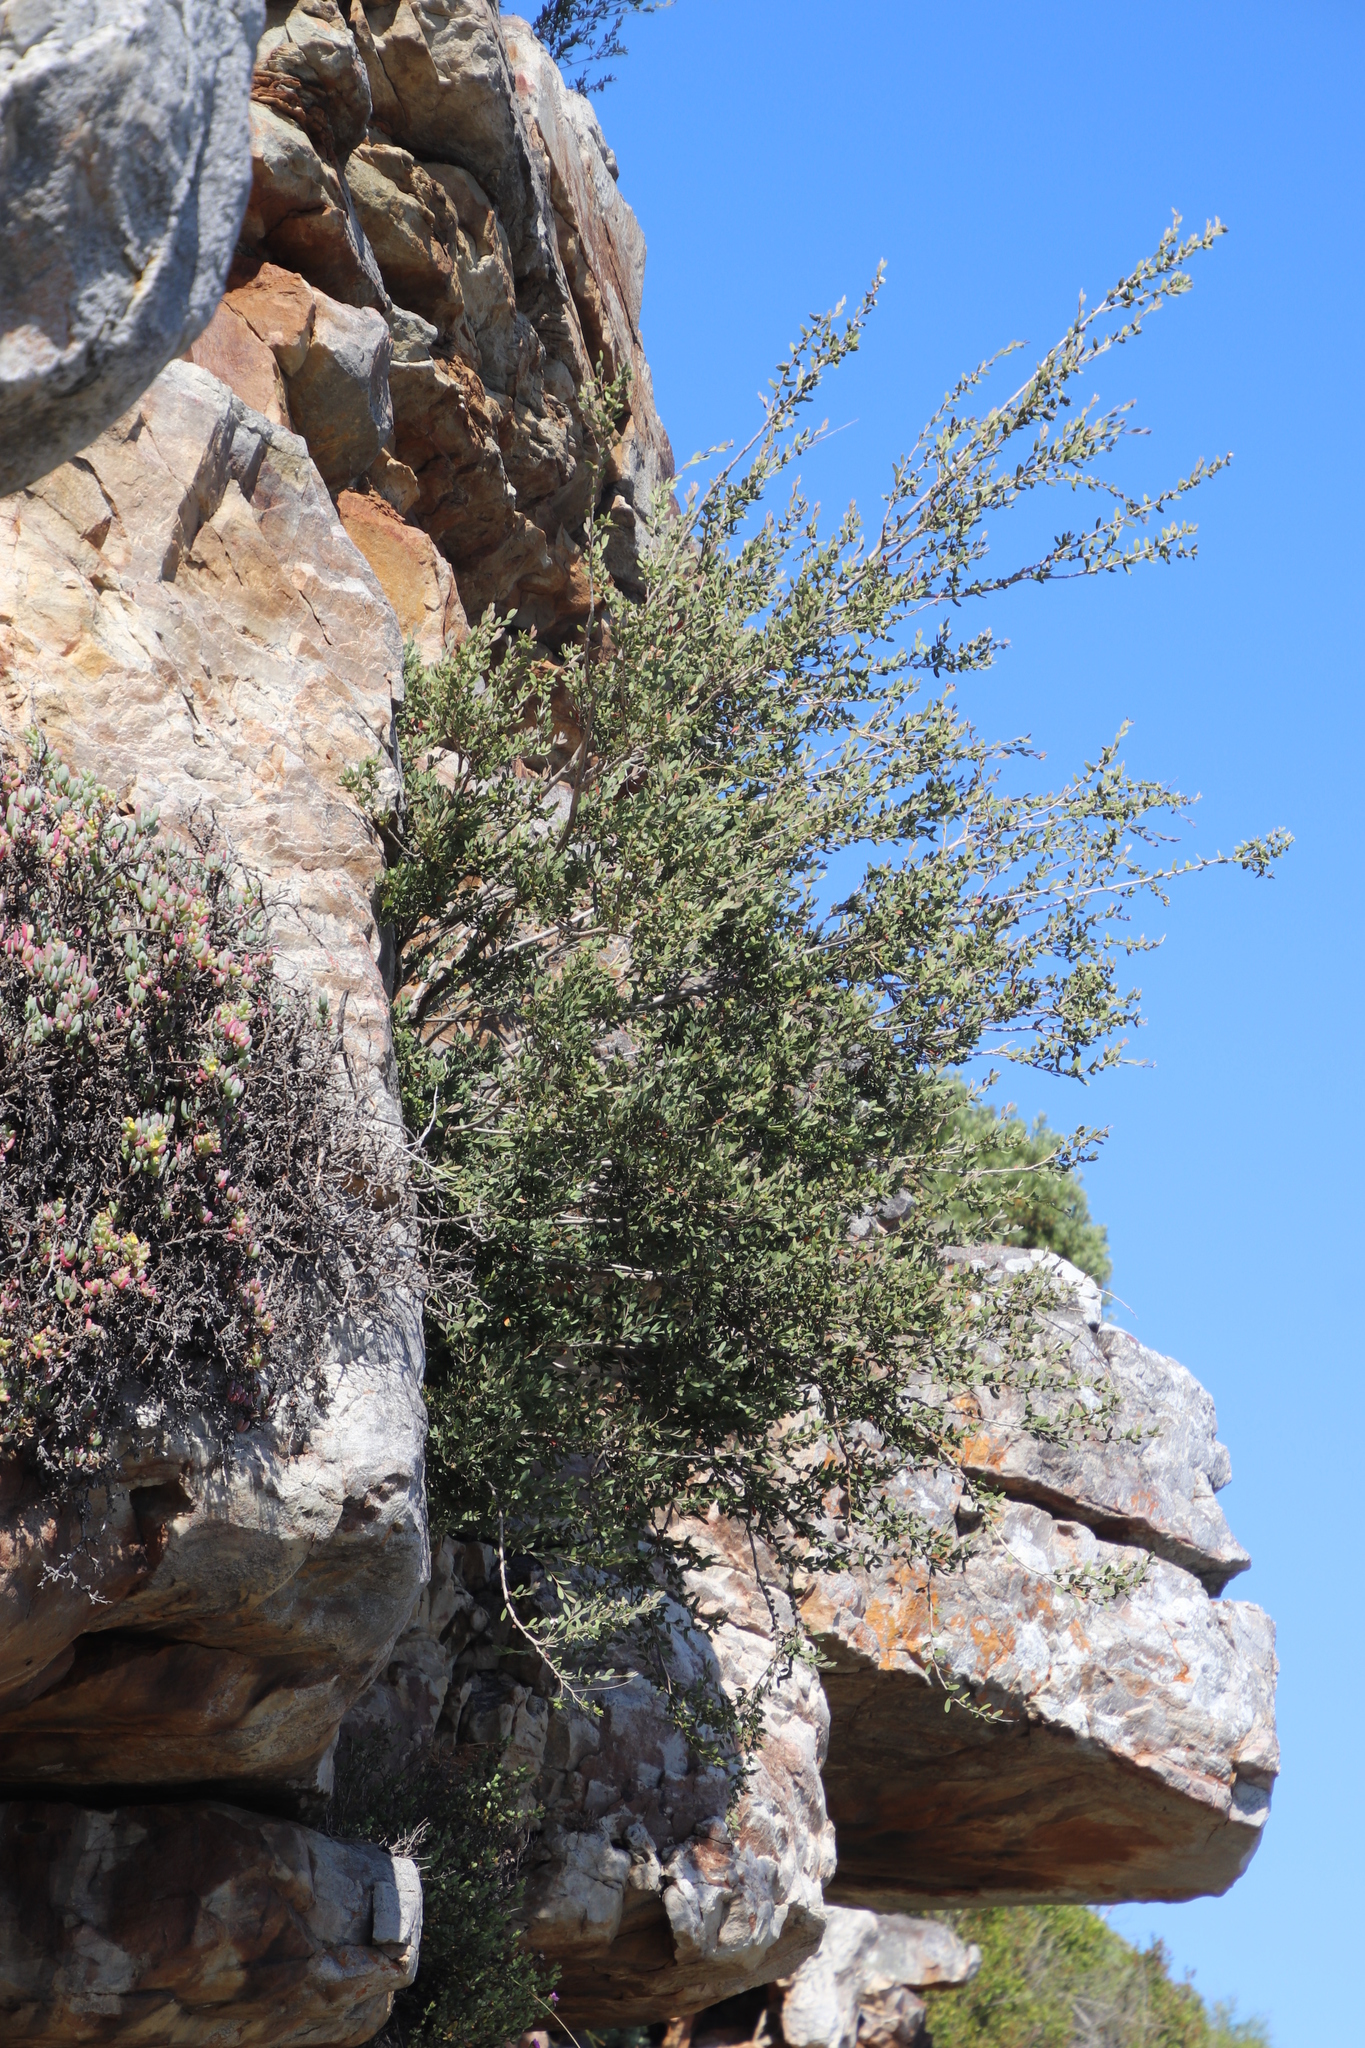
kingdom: Plantae
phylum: Tracheophyta
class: Magnoliopsida
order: Myrtales
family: Myrtaceae
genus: Leptospermum
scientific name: Leptospermum laevigatum
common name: Australian teatree
